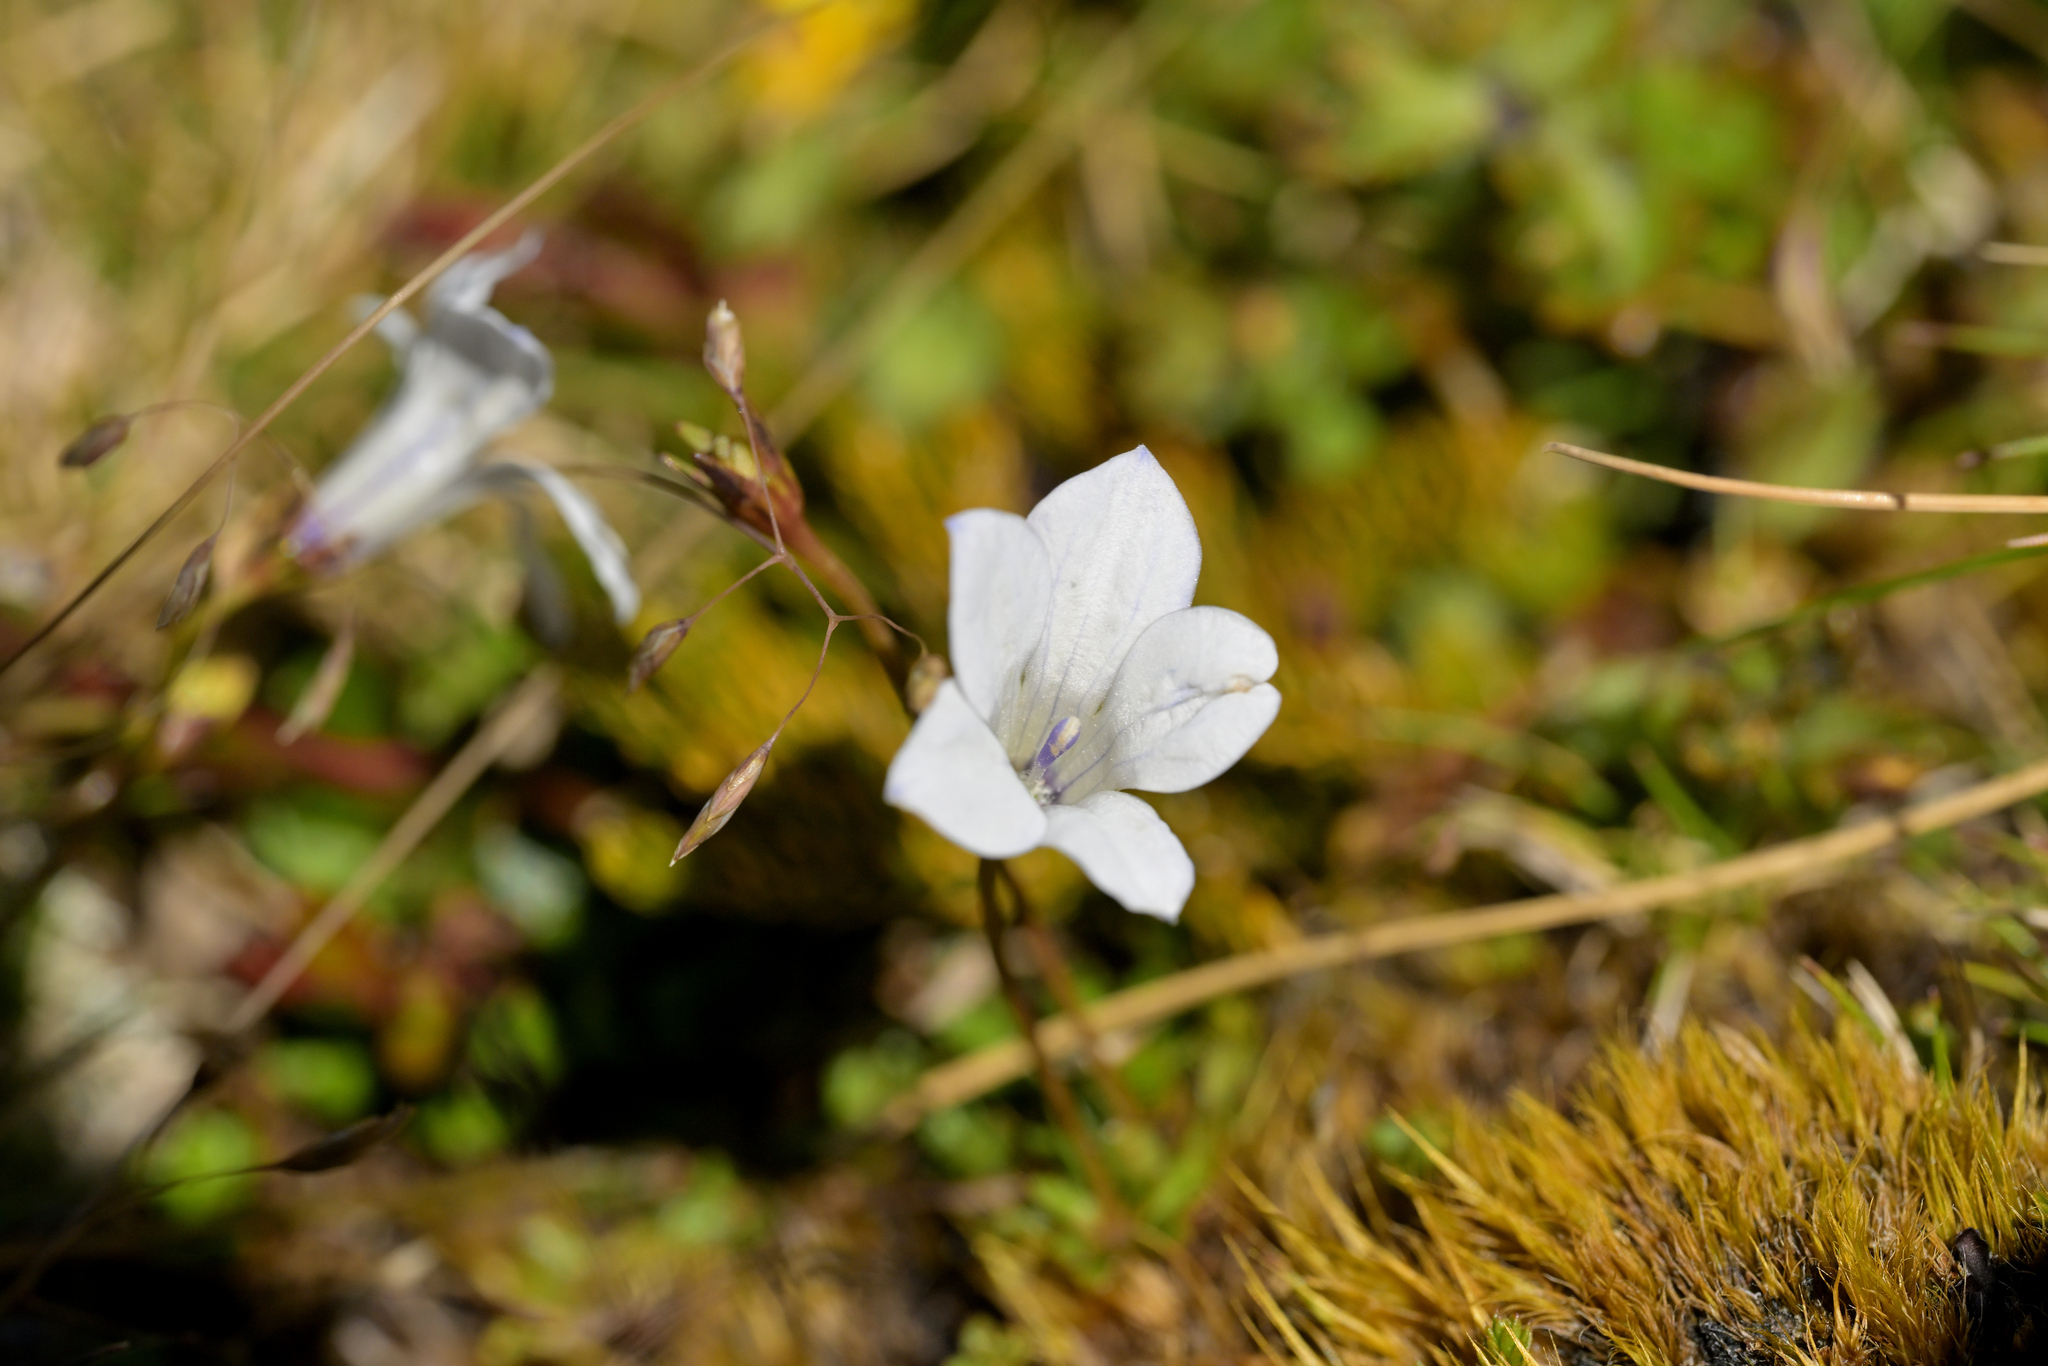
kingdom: Plantae
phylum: Tracheophyta
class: Magnoliopsida
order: Asterales
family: Campanulaceae
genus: Wahlenbergia
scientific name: Wahlenbergia albomarginata
